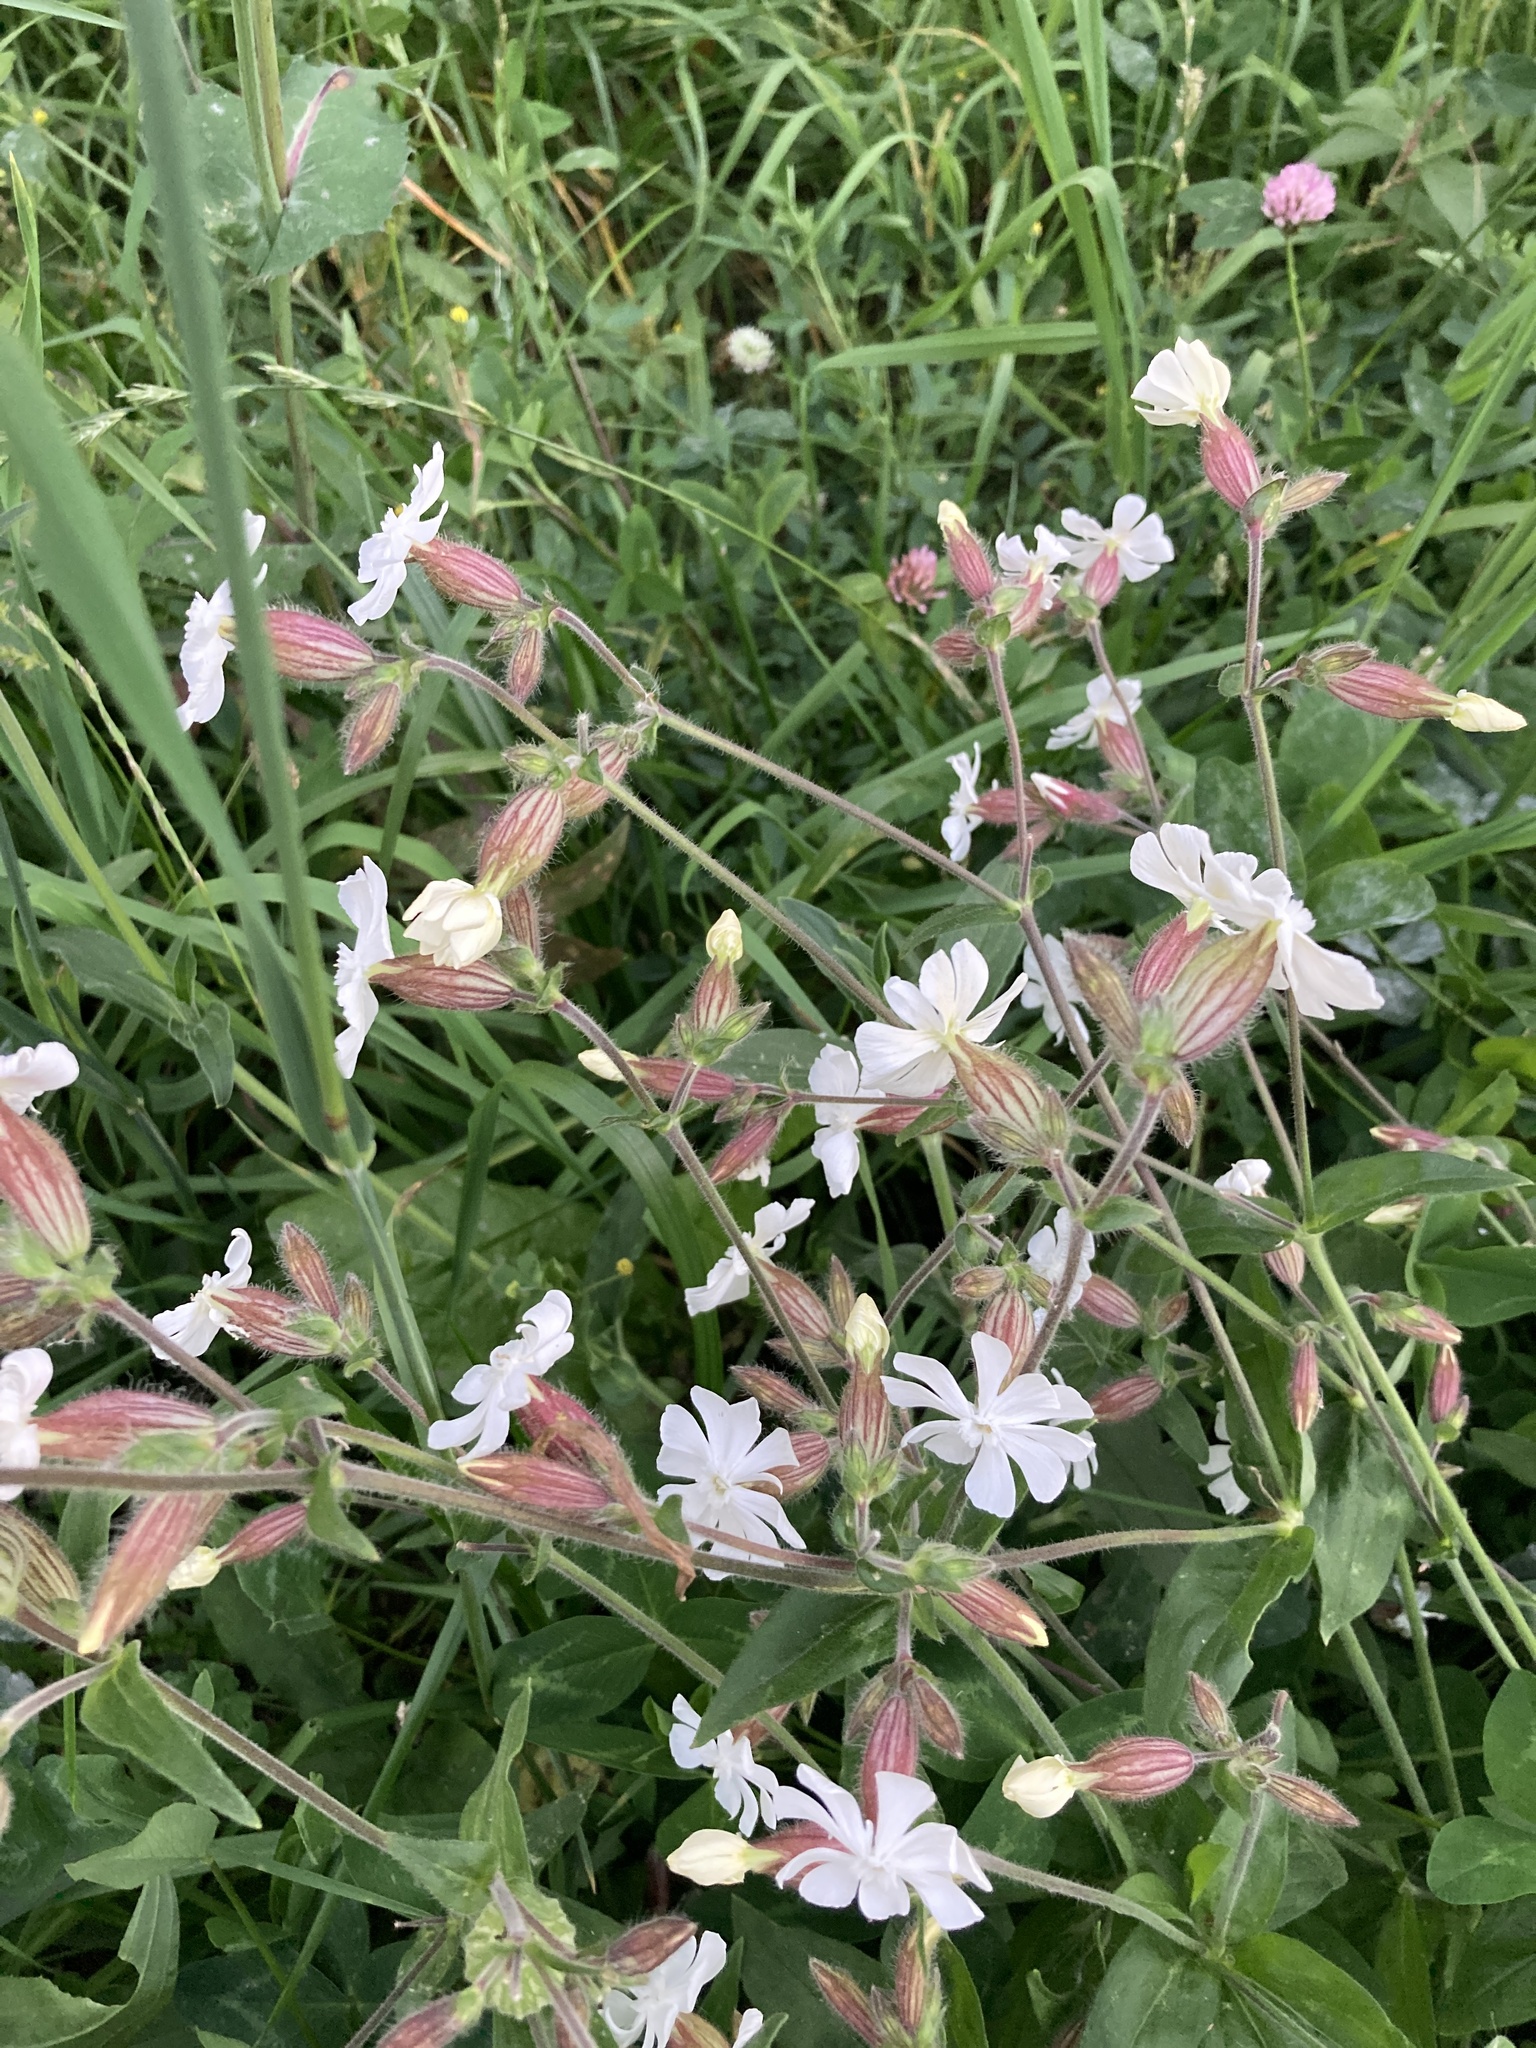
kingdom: Plantae
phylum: Tracheophyta
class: Magnoliopsida
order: Caryophyllales
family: Caryophyllaceae
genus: Silene
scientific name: Silene latifolia
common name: White campion
